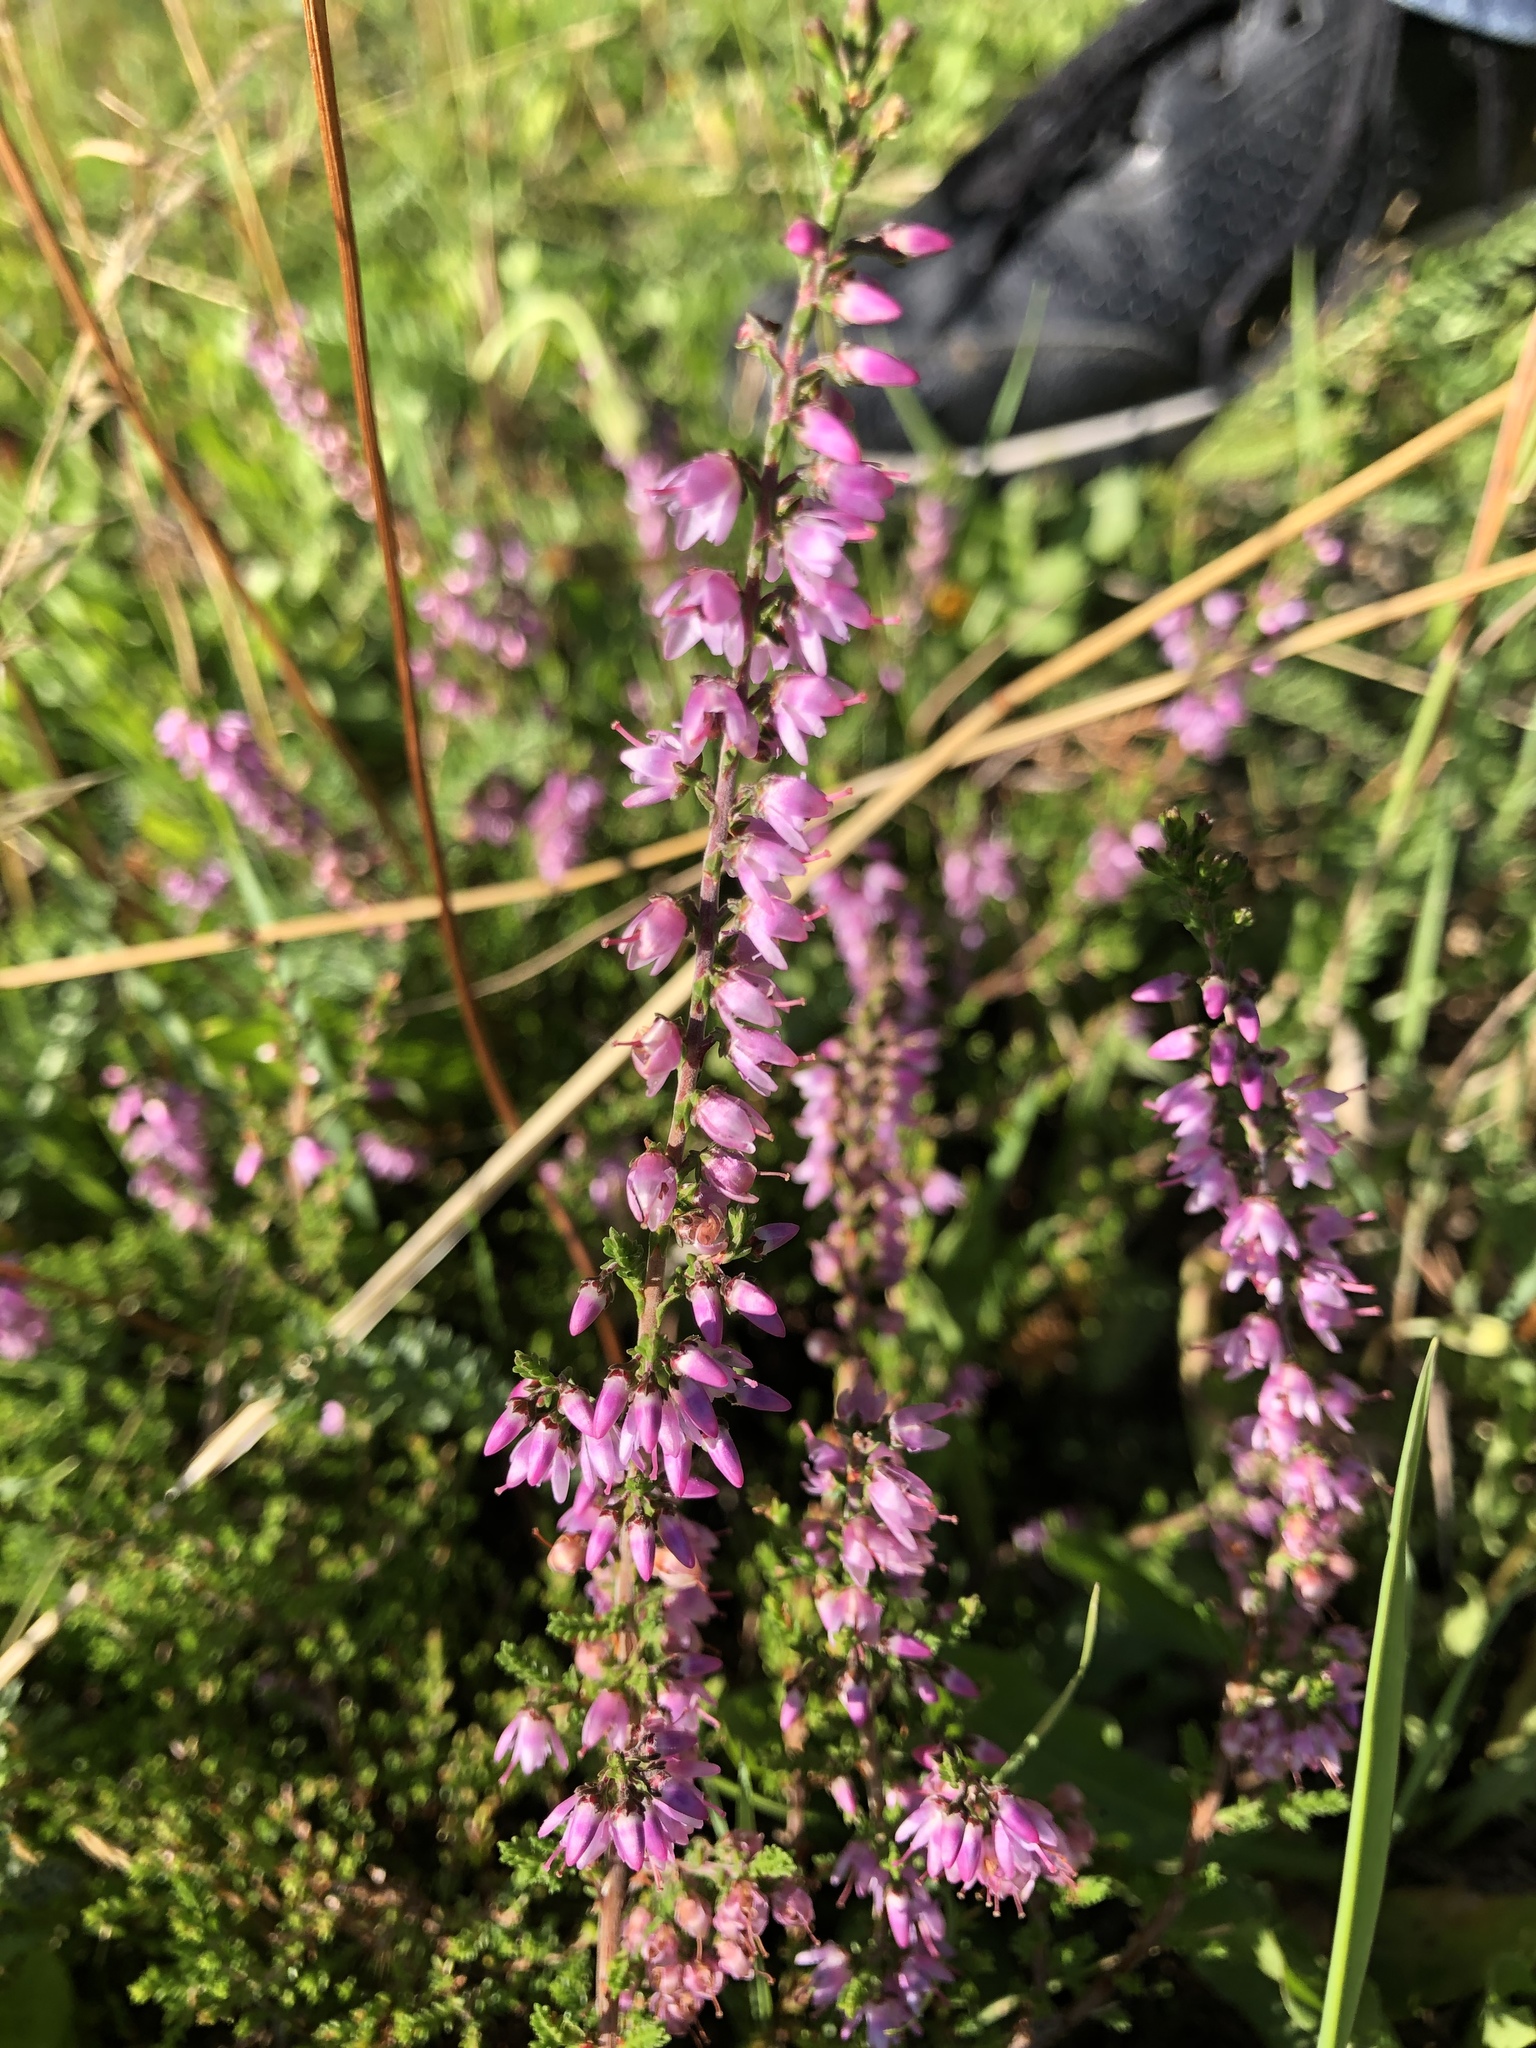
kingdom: Plantae
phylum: Tracheophyta
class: Magnoliopsida
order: Ericales
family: Ericaceae
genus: Calluna
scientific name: Calluna vulgaris
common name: Heather
